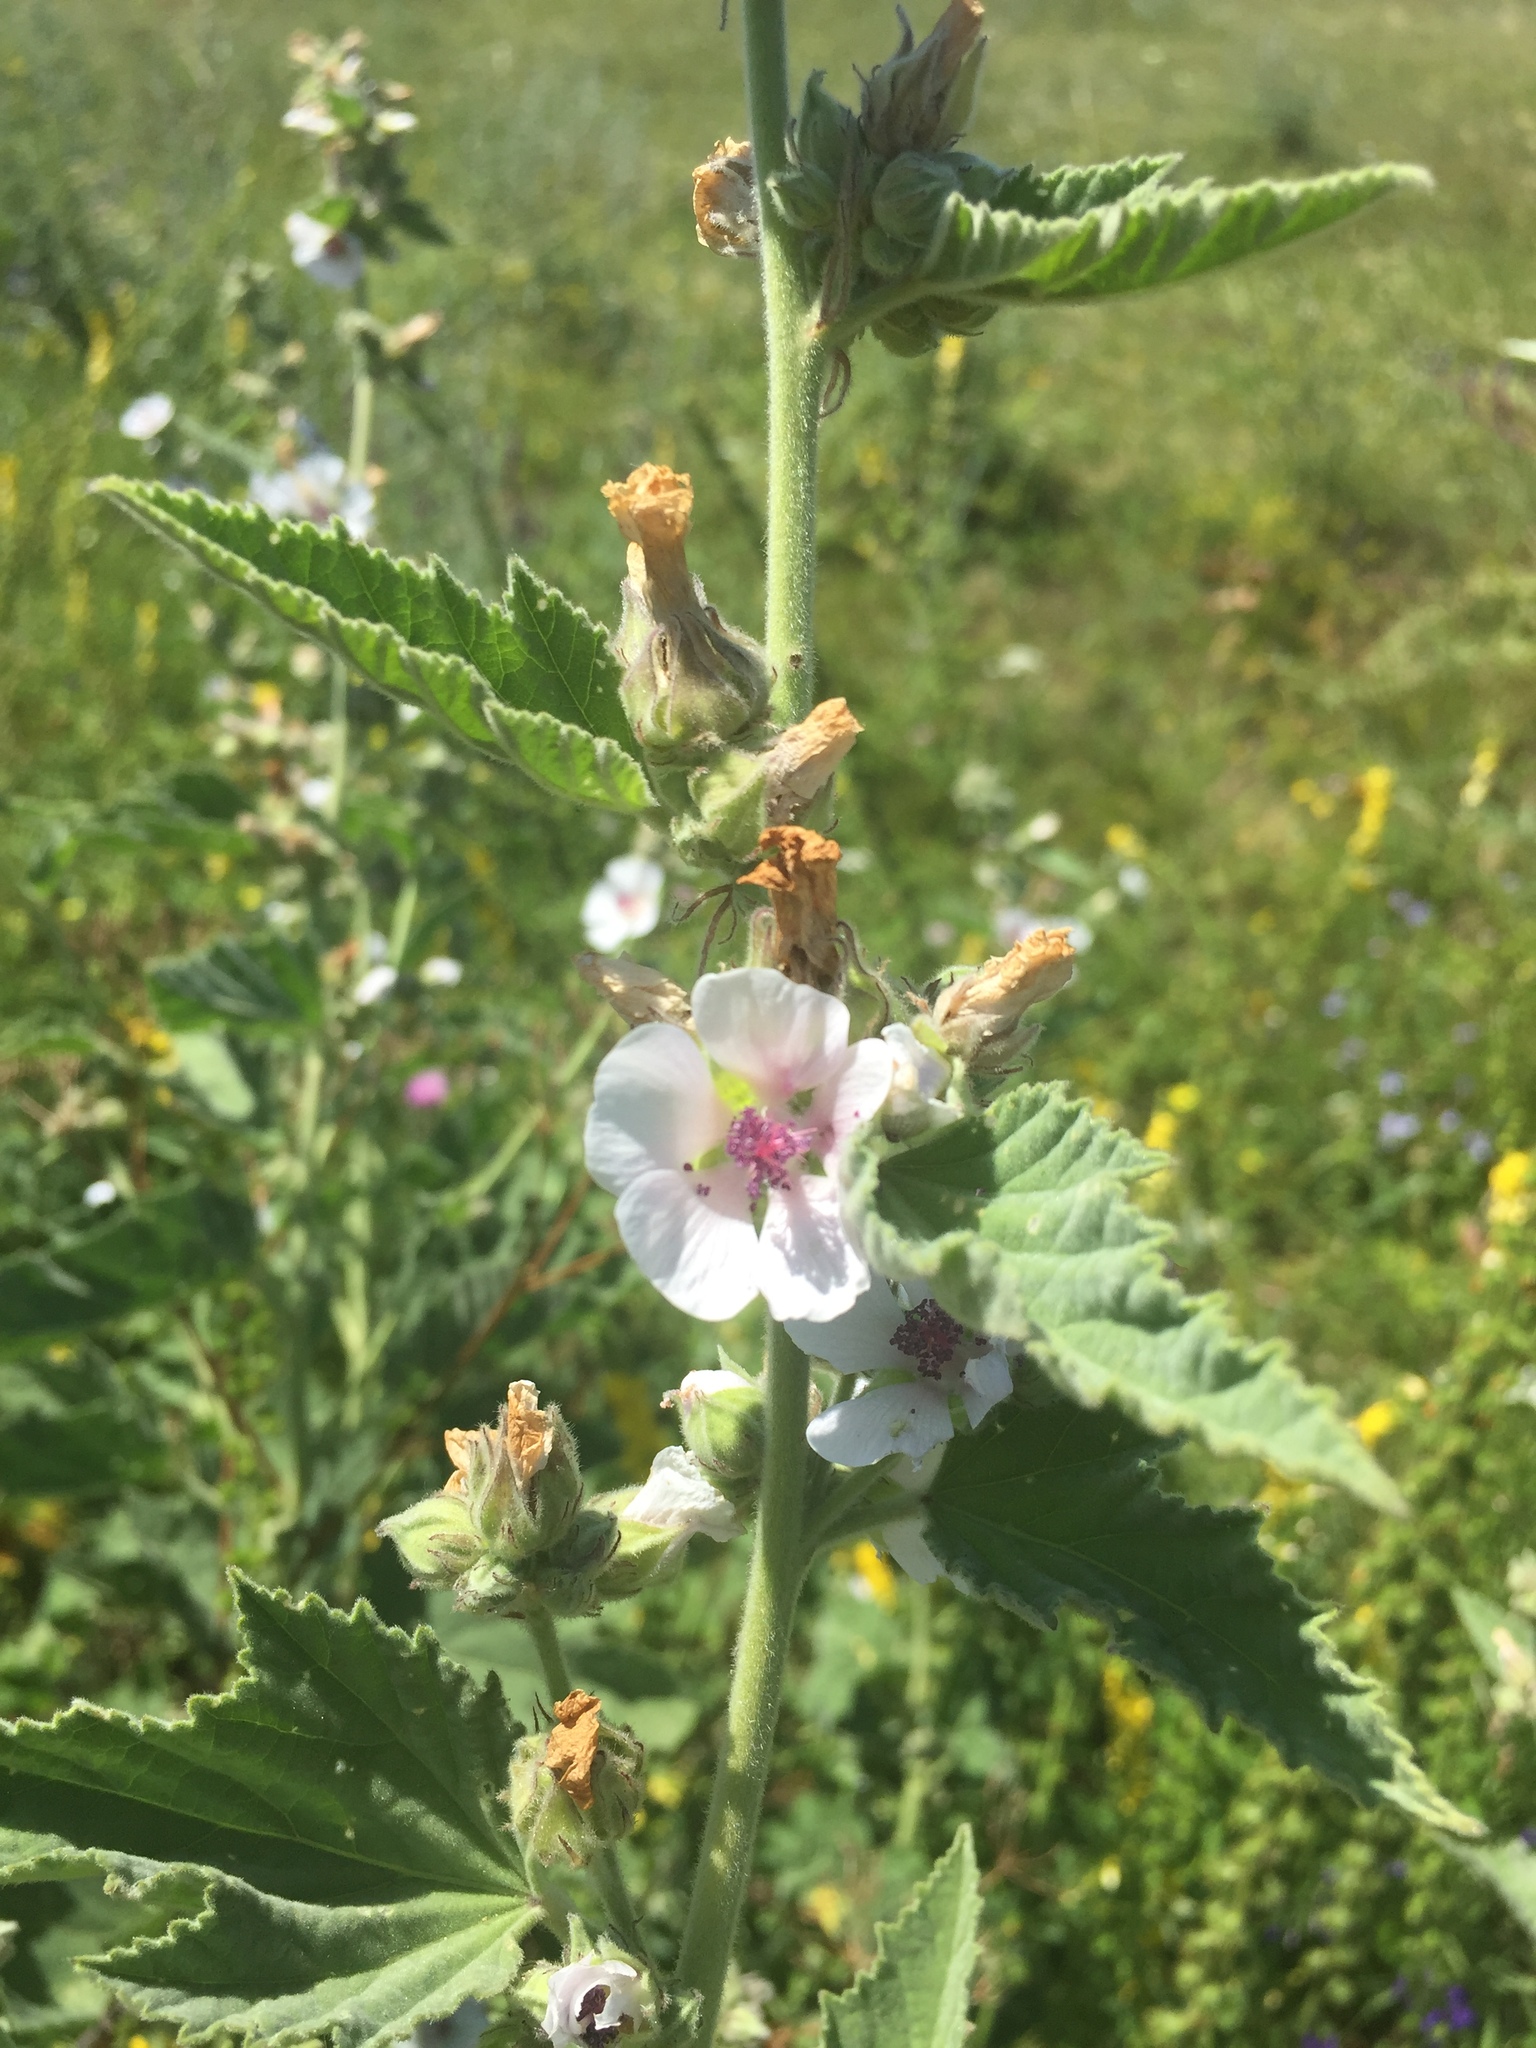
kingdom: Plantae
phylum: Tracheophyta
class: Magnoliopsida
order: Malvales
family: Malvaceae
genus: Althaea
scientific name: Althaea officinalis
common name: Marsh-mallow
